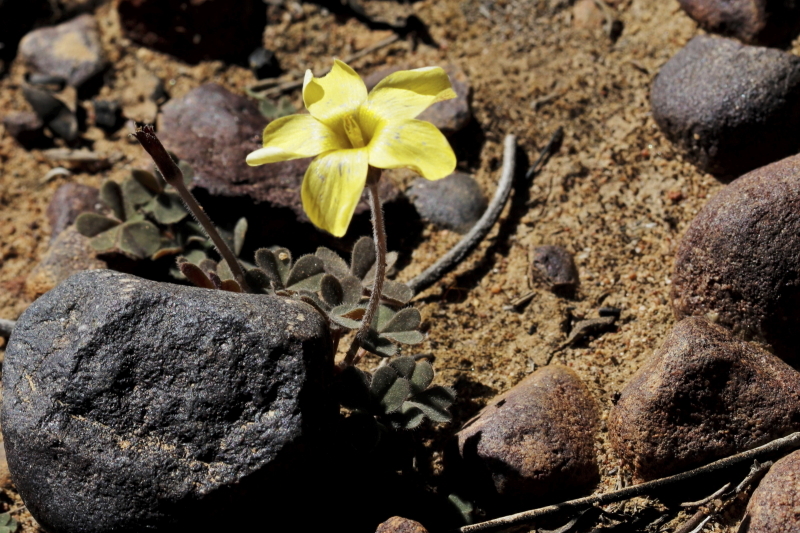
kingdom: Plantae
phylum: Tracheophyta
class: Magnoliopsida
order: Oxalidales
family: Oxalidaceae
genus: Oxalis
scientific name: Oxalis obtusa
